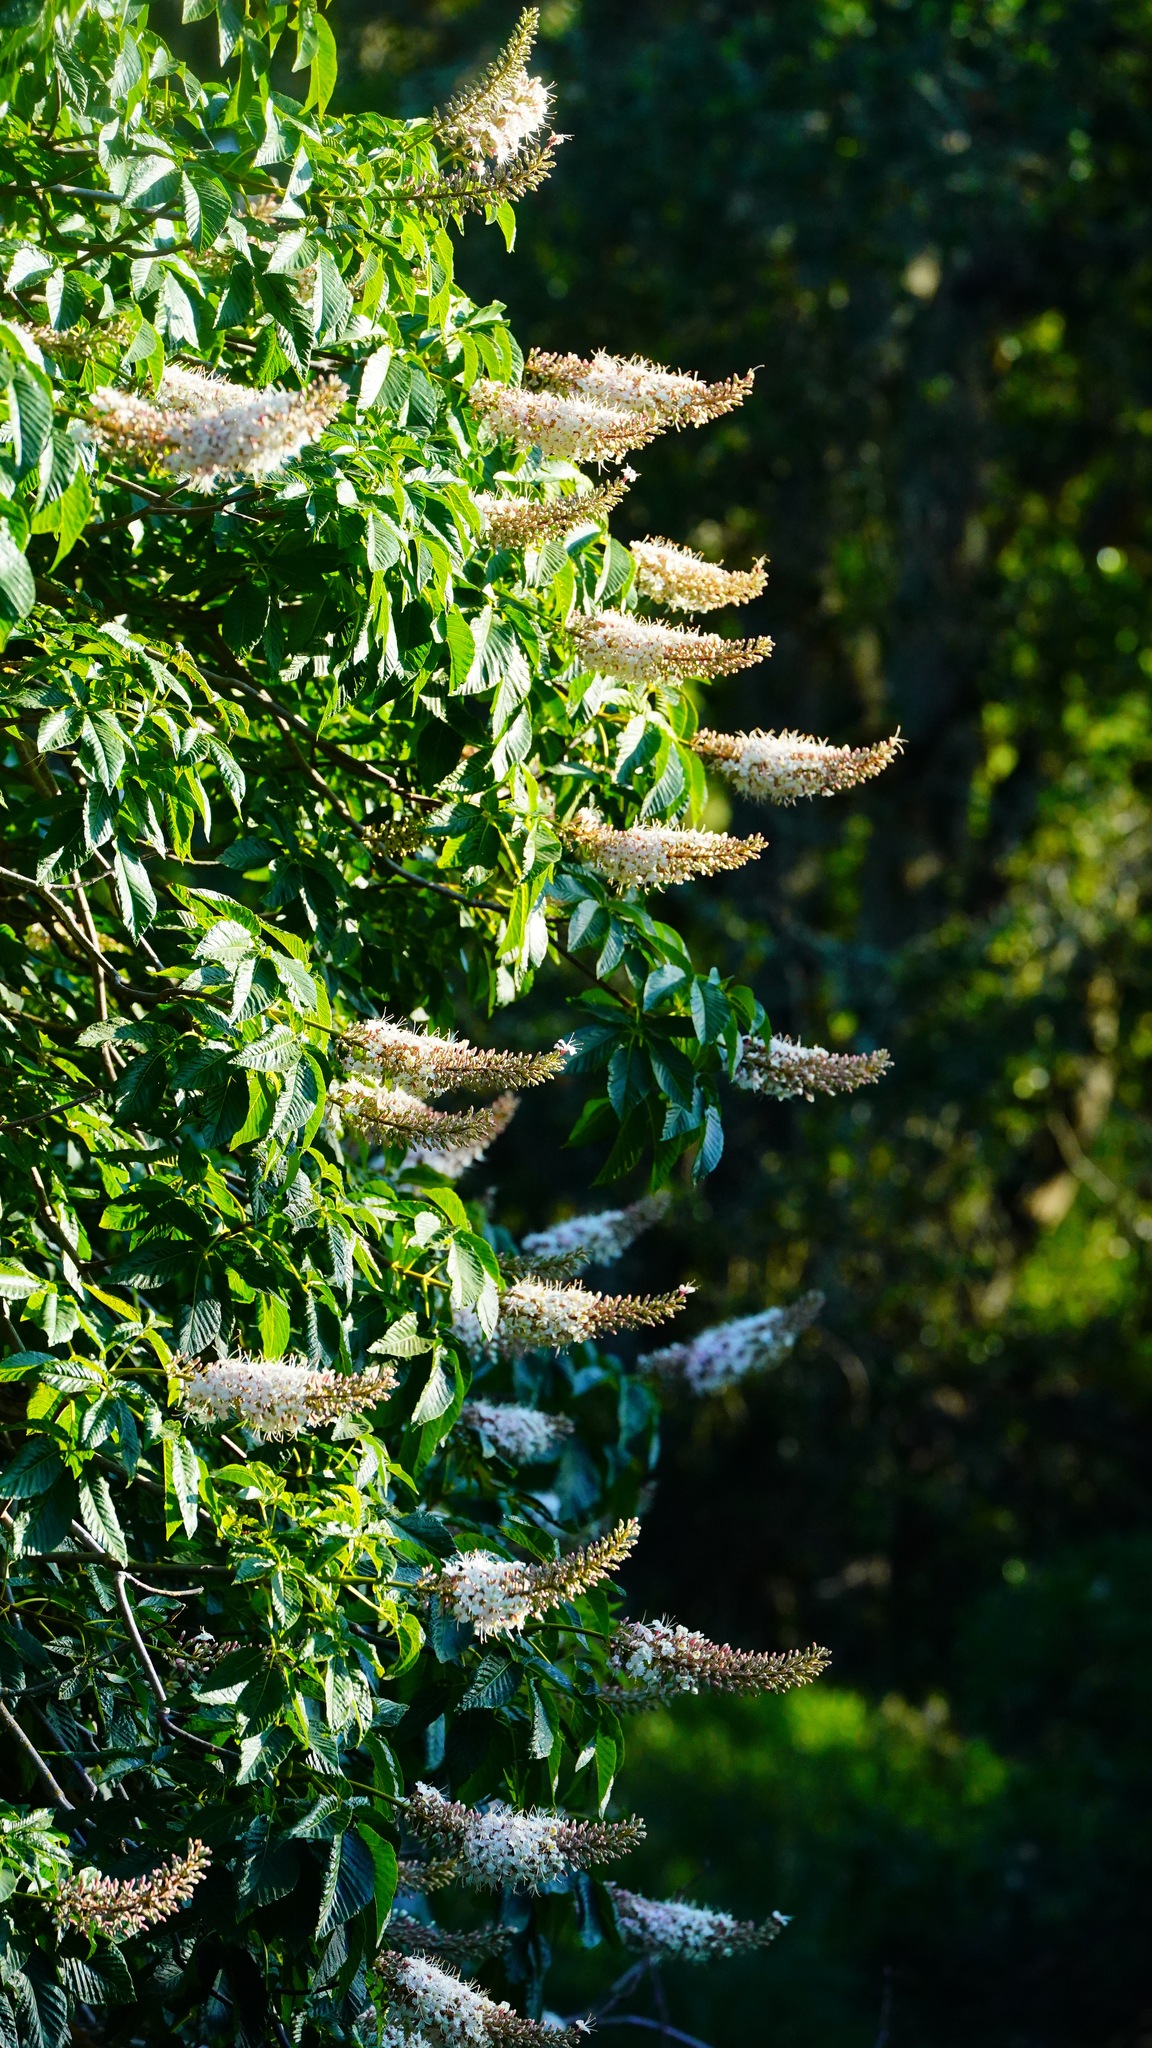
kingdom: Plantae
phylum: Tracheophyta
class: Magnoliopsida
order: Sapindales
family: Sapindaceae
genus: Aesculus
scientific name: Aesculus californica
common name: California buckeye
